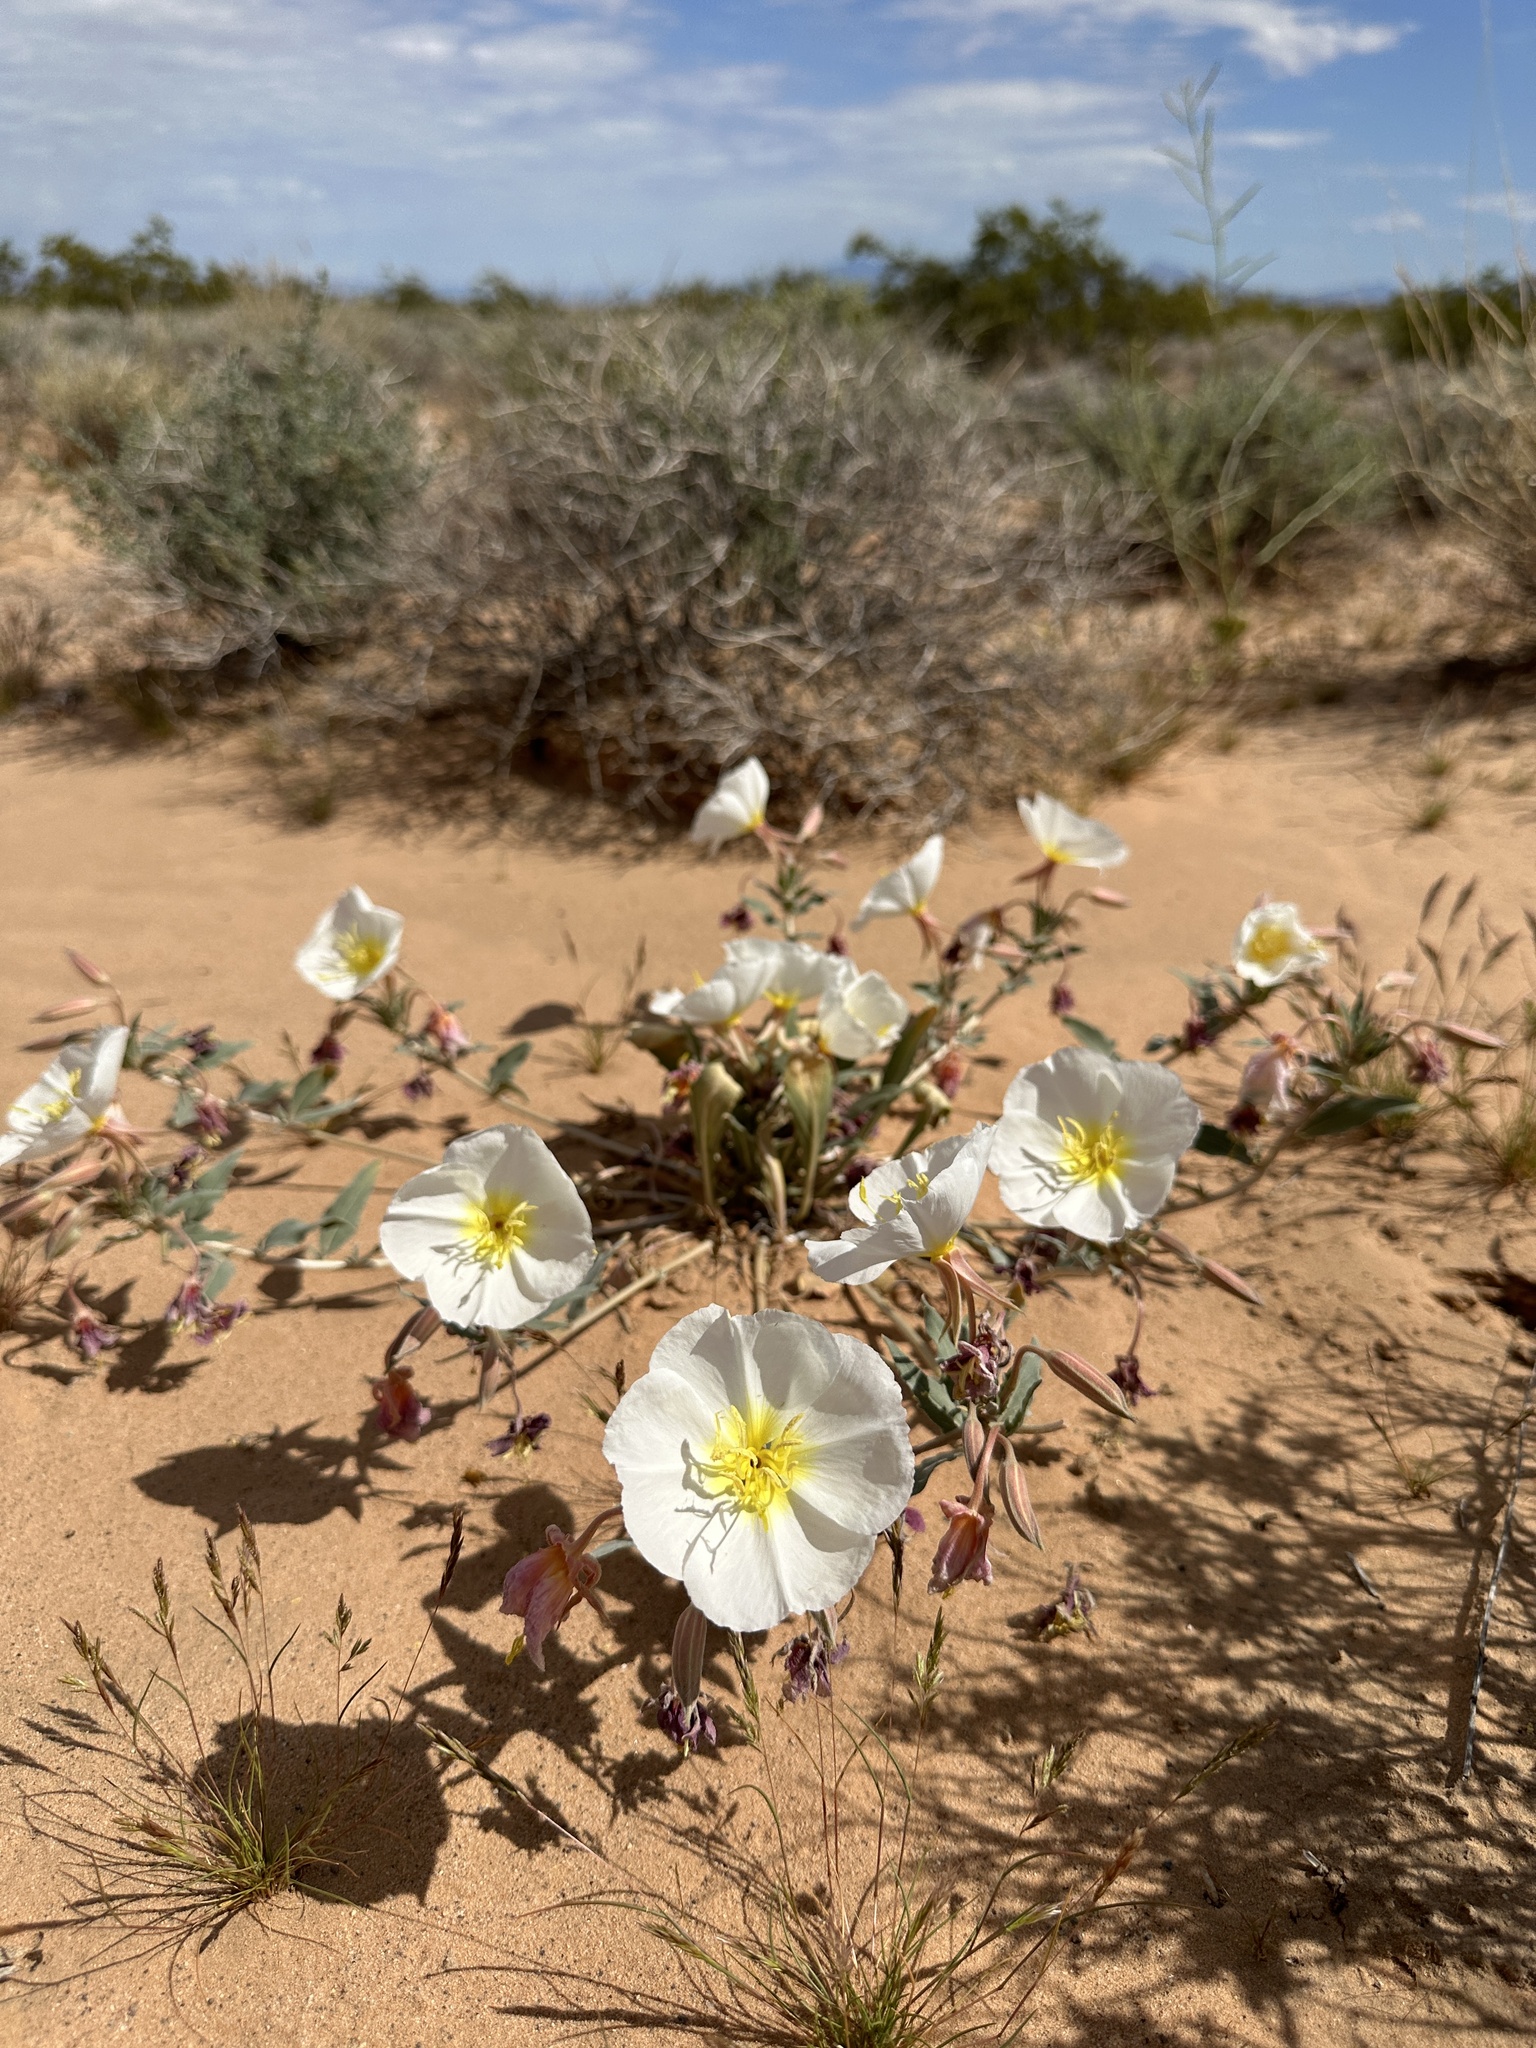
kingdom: Plantae
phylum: Tracheophyta
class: Magnoliopsida
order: Myrtales
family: Onagraceae
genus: Oenothera
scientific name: Oenothera deltoides
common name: Basket evening-primrose
